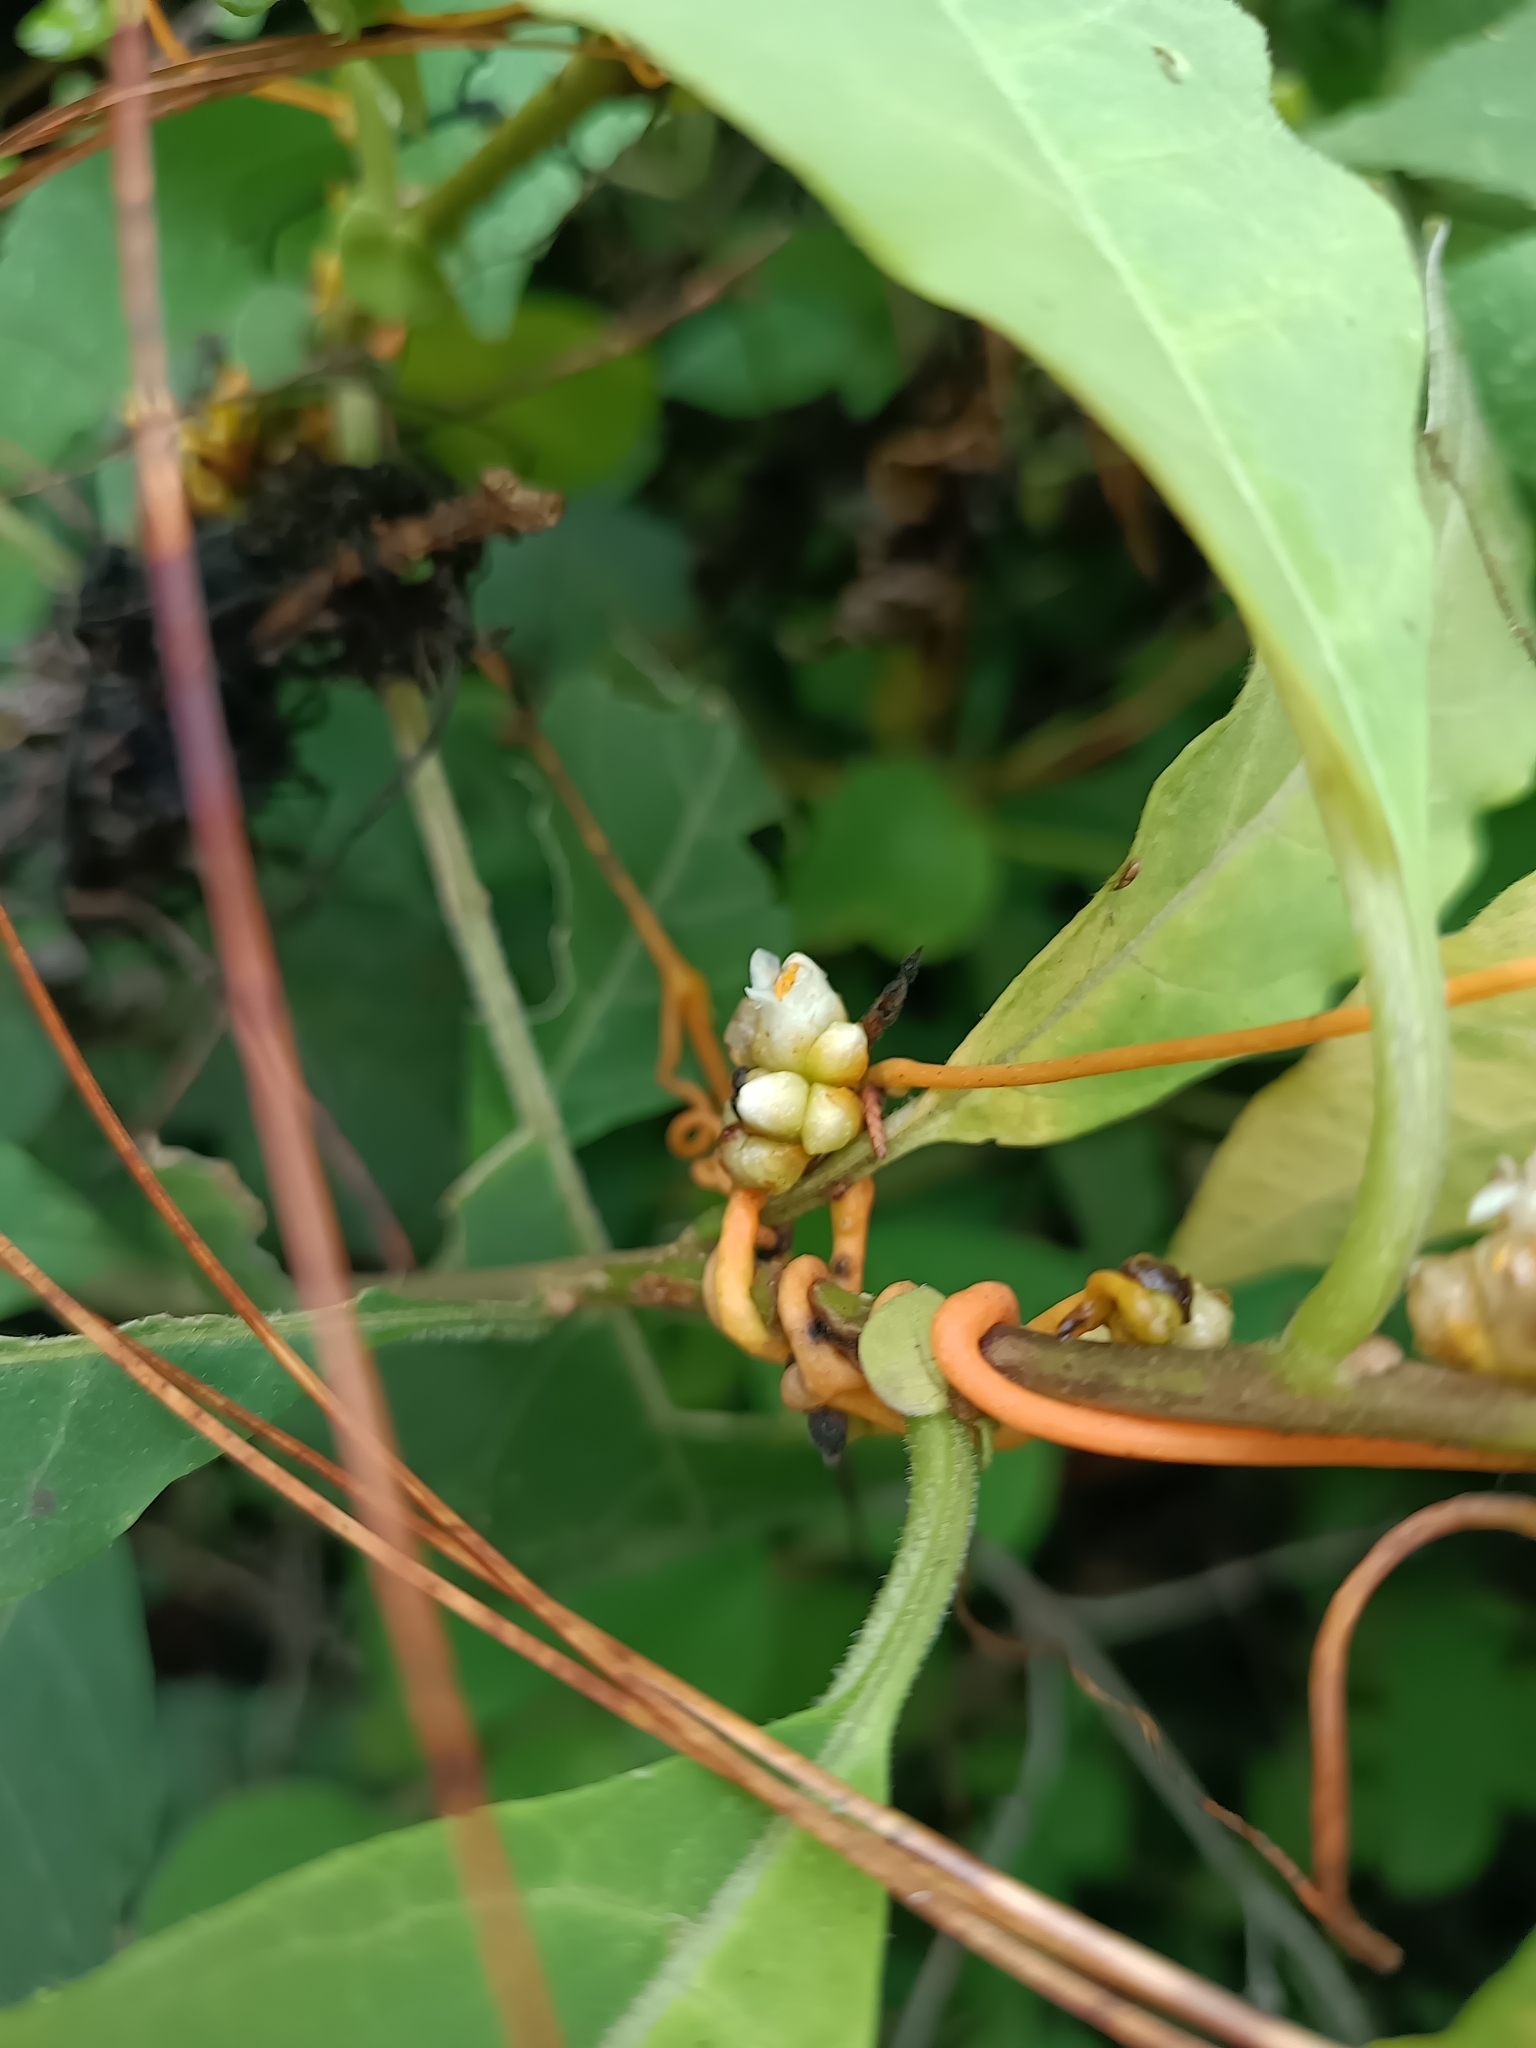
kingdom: Plantae
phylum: Tracheophyta
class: Magnoliopsida
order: Solanales
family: Convolvulaceae
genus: Cuscuta
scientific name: Cuscuta campestris
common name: Yellow dodder
